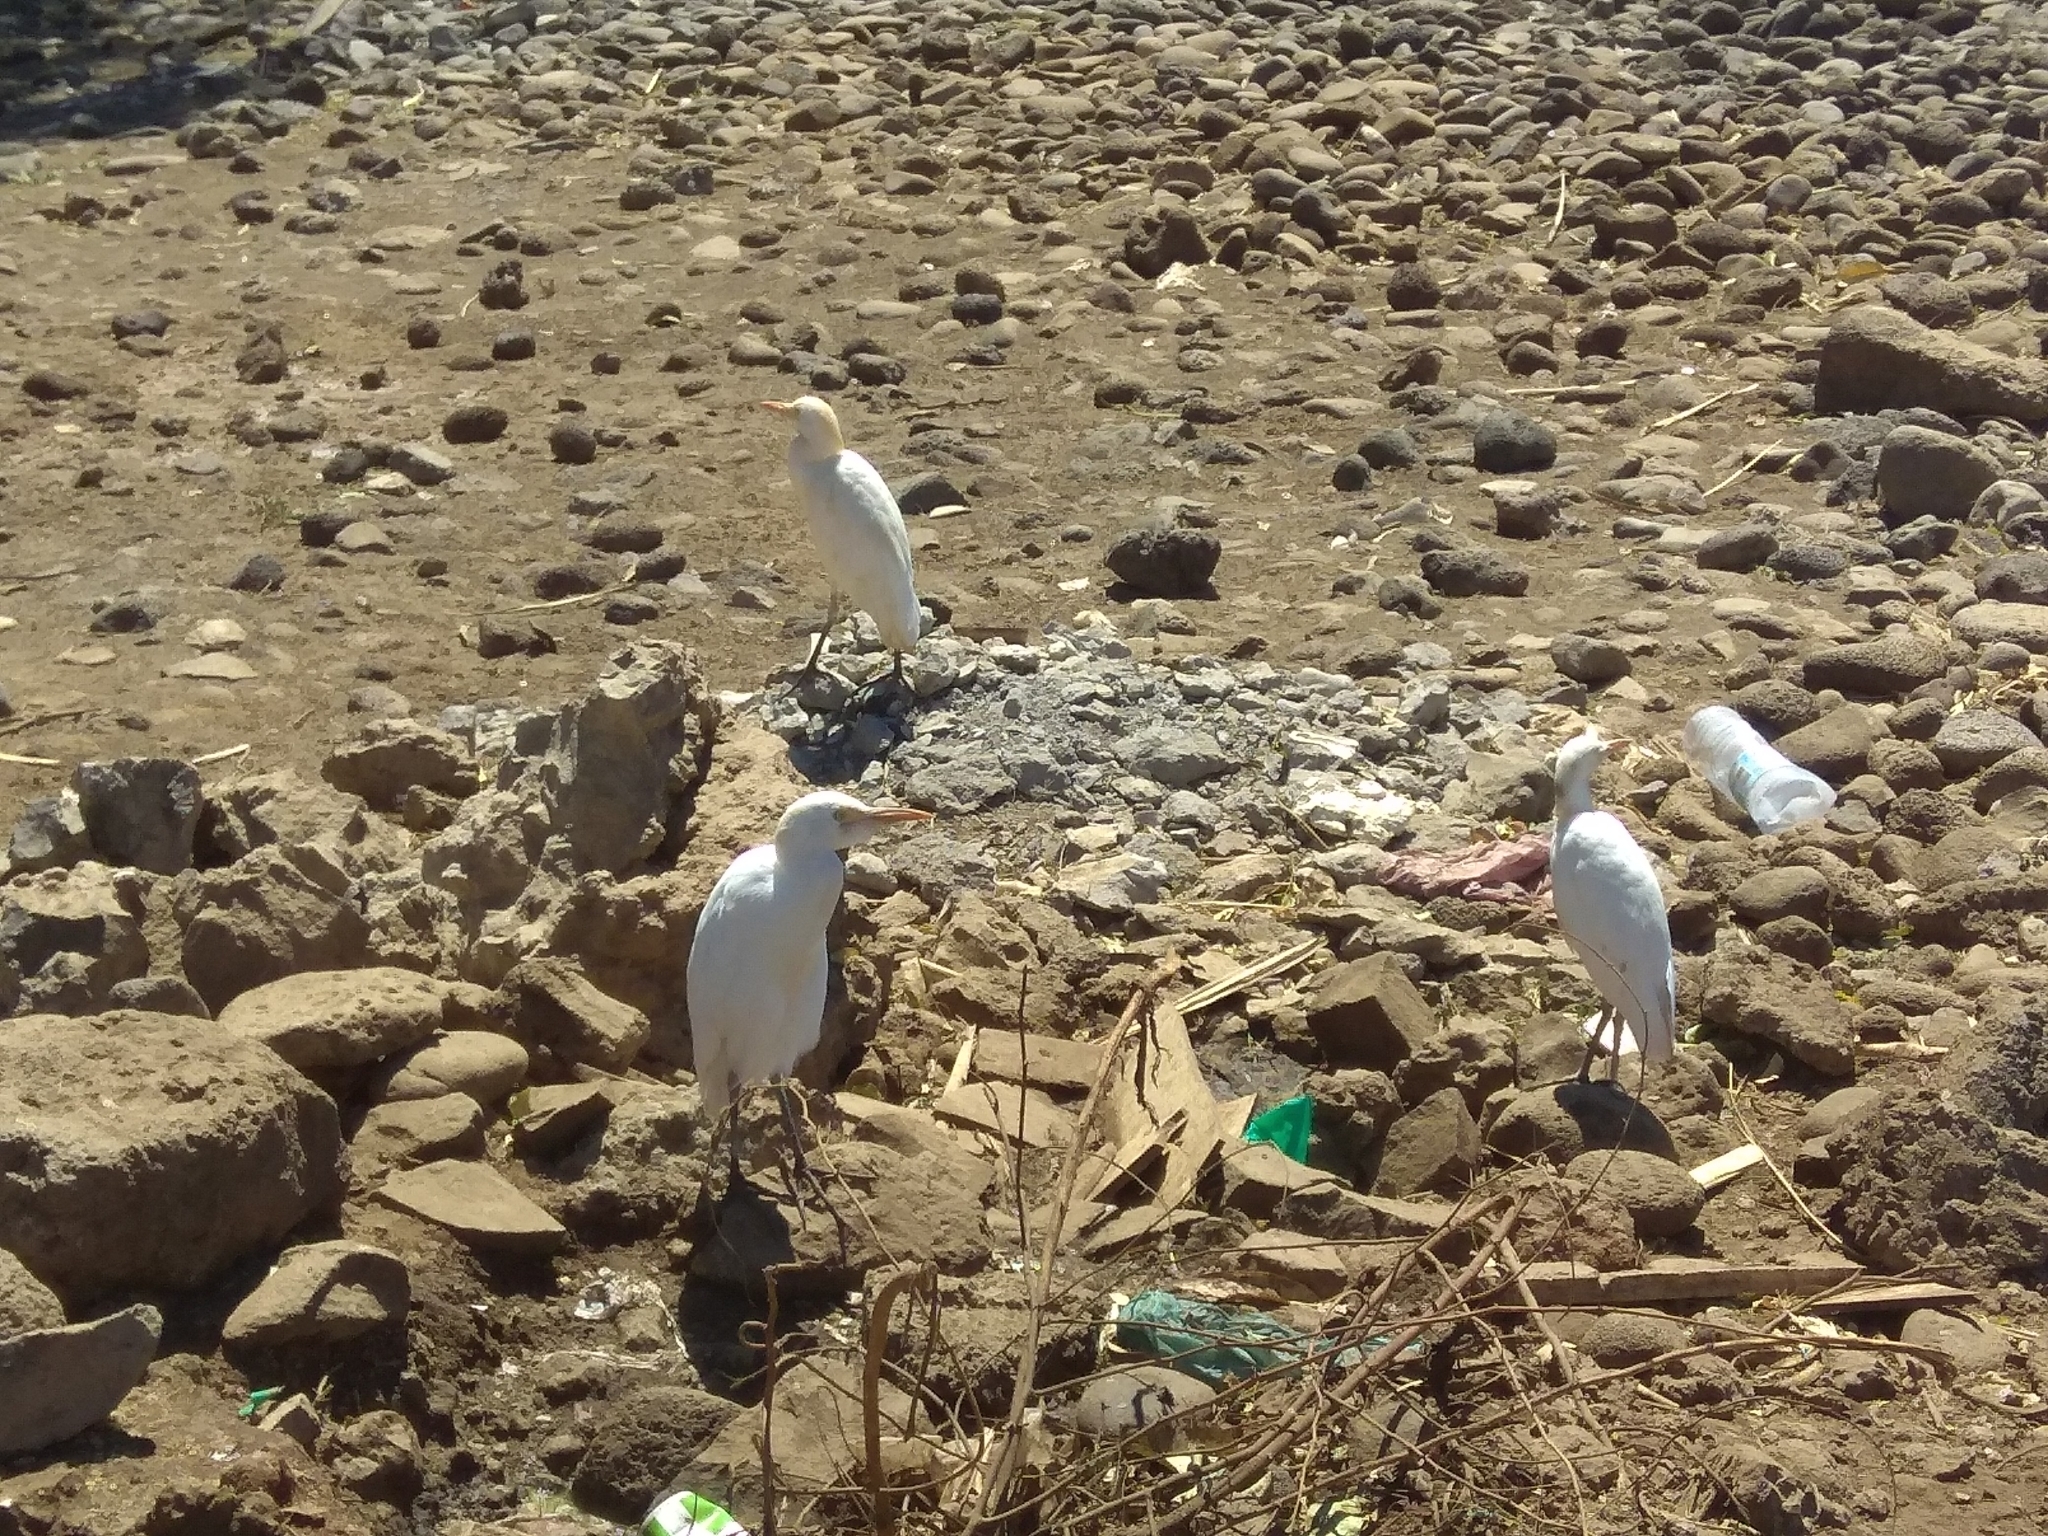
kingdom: Animalia
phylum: Chordata
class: Aves
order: Pelecaniformes
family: Ardeidae
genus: Bubulcus
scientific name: Bubulcus ibis
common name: Cattle egret
